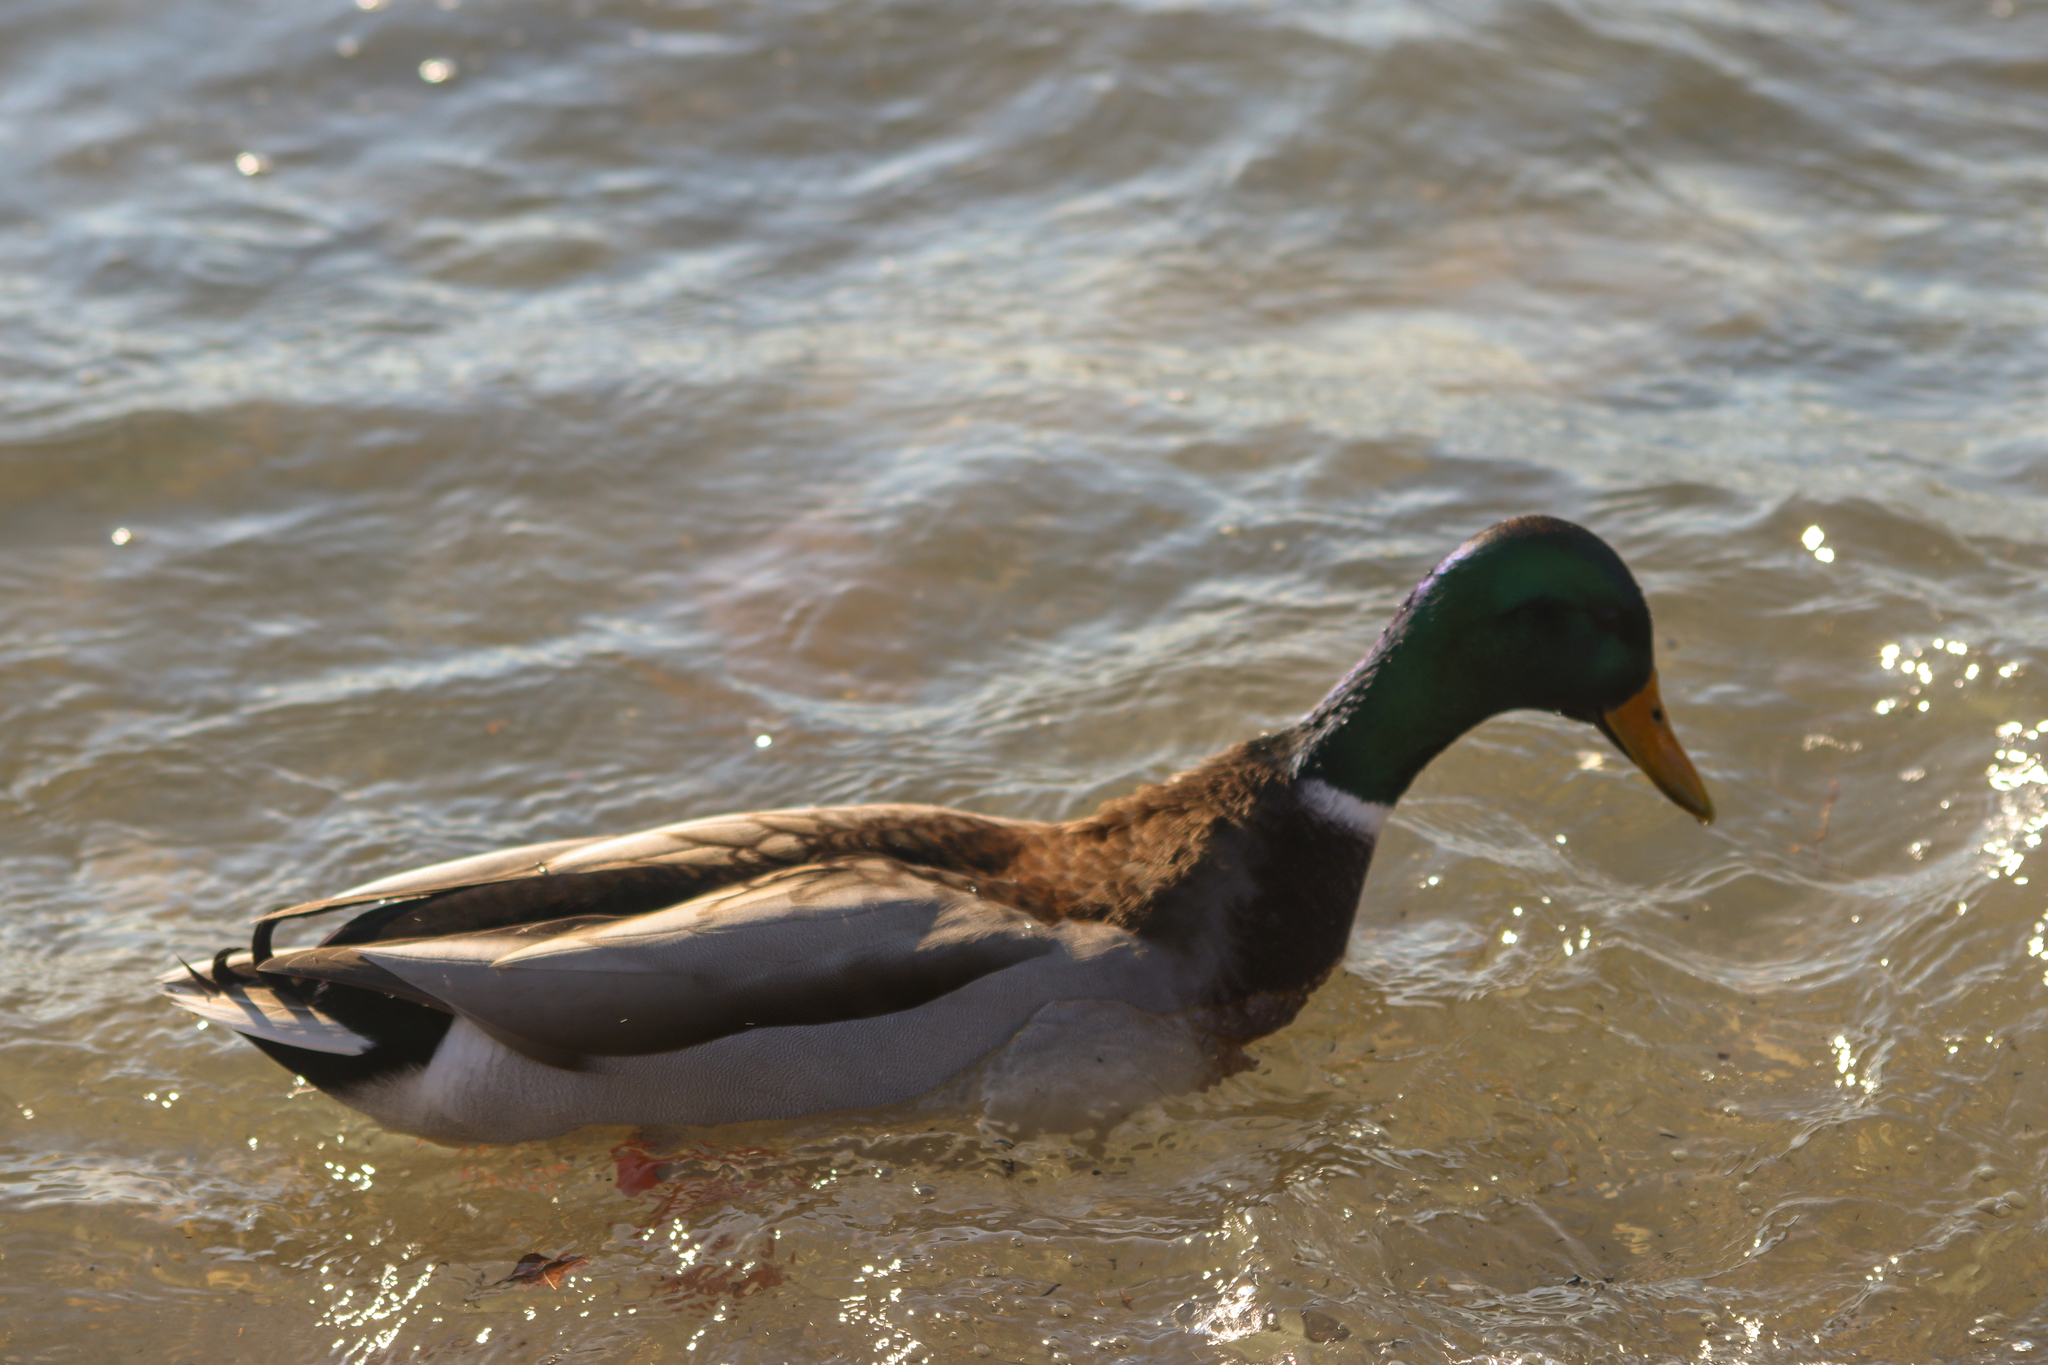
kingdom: Animalia
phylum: Chordata
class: Aves
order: Anseriformes
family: Anatidae
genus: Anas
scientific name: Anas platyrhynchos
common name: Mallard
